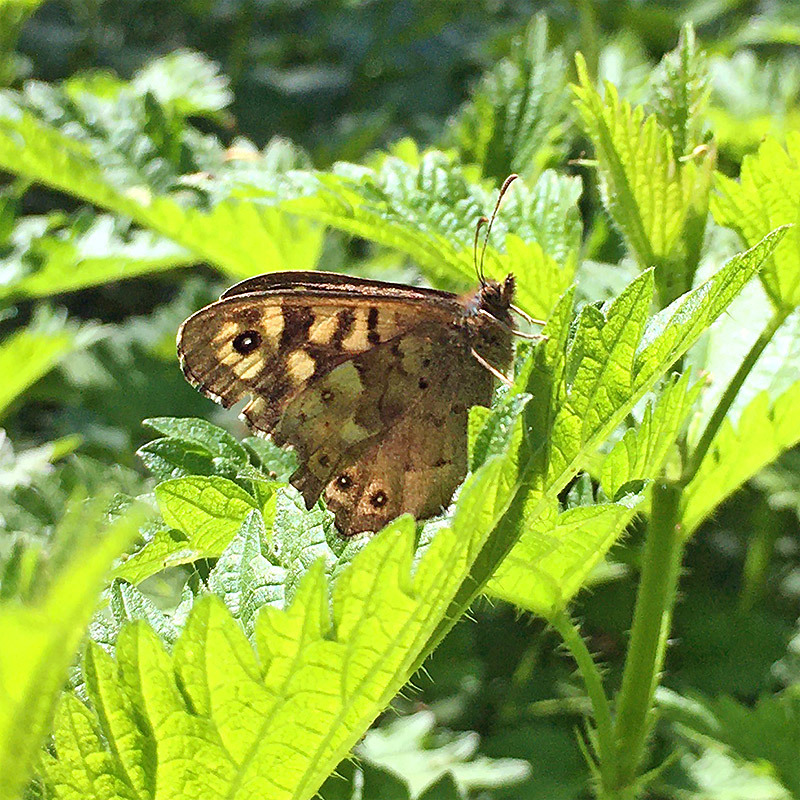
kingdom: Animalia
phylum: Arthropoda
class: Insecta
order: Lepidoptera
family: Nymphalidae
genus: Pararge
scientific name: Pararge aegeria
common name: Speckled wood
